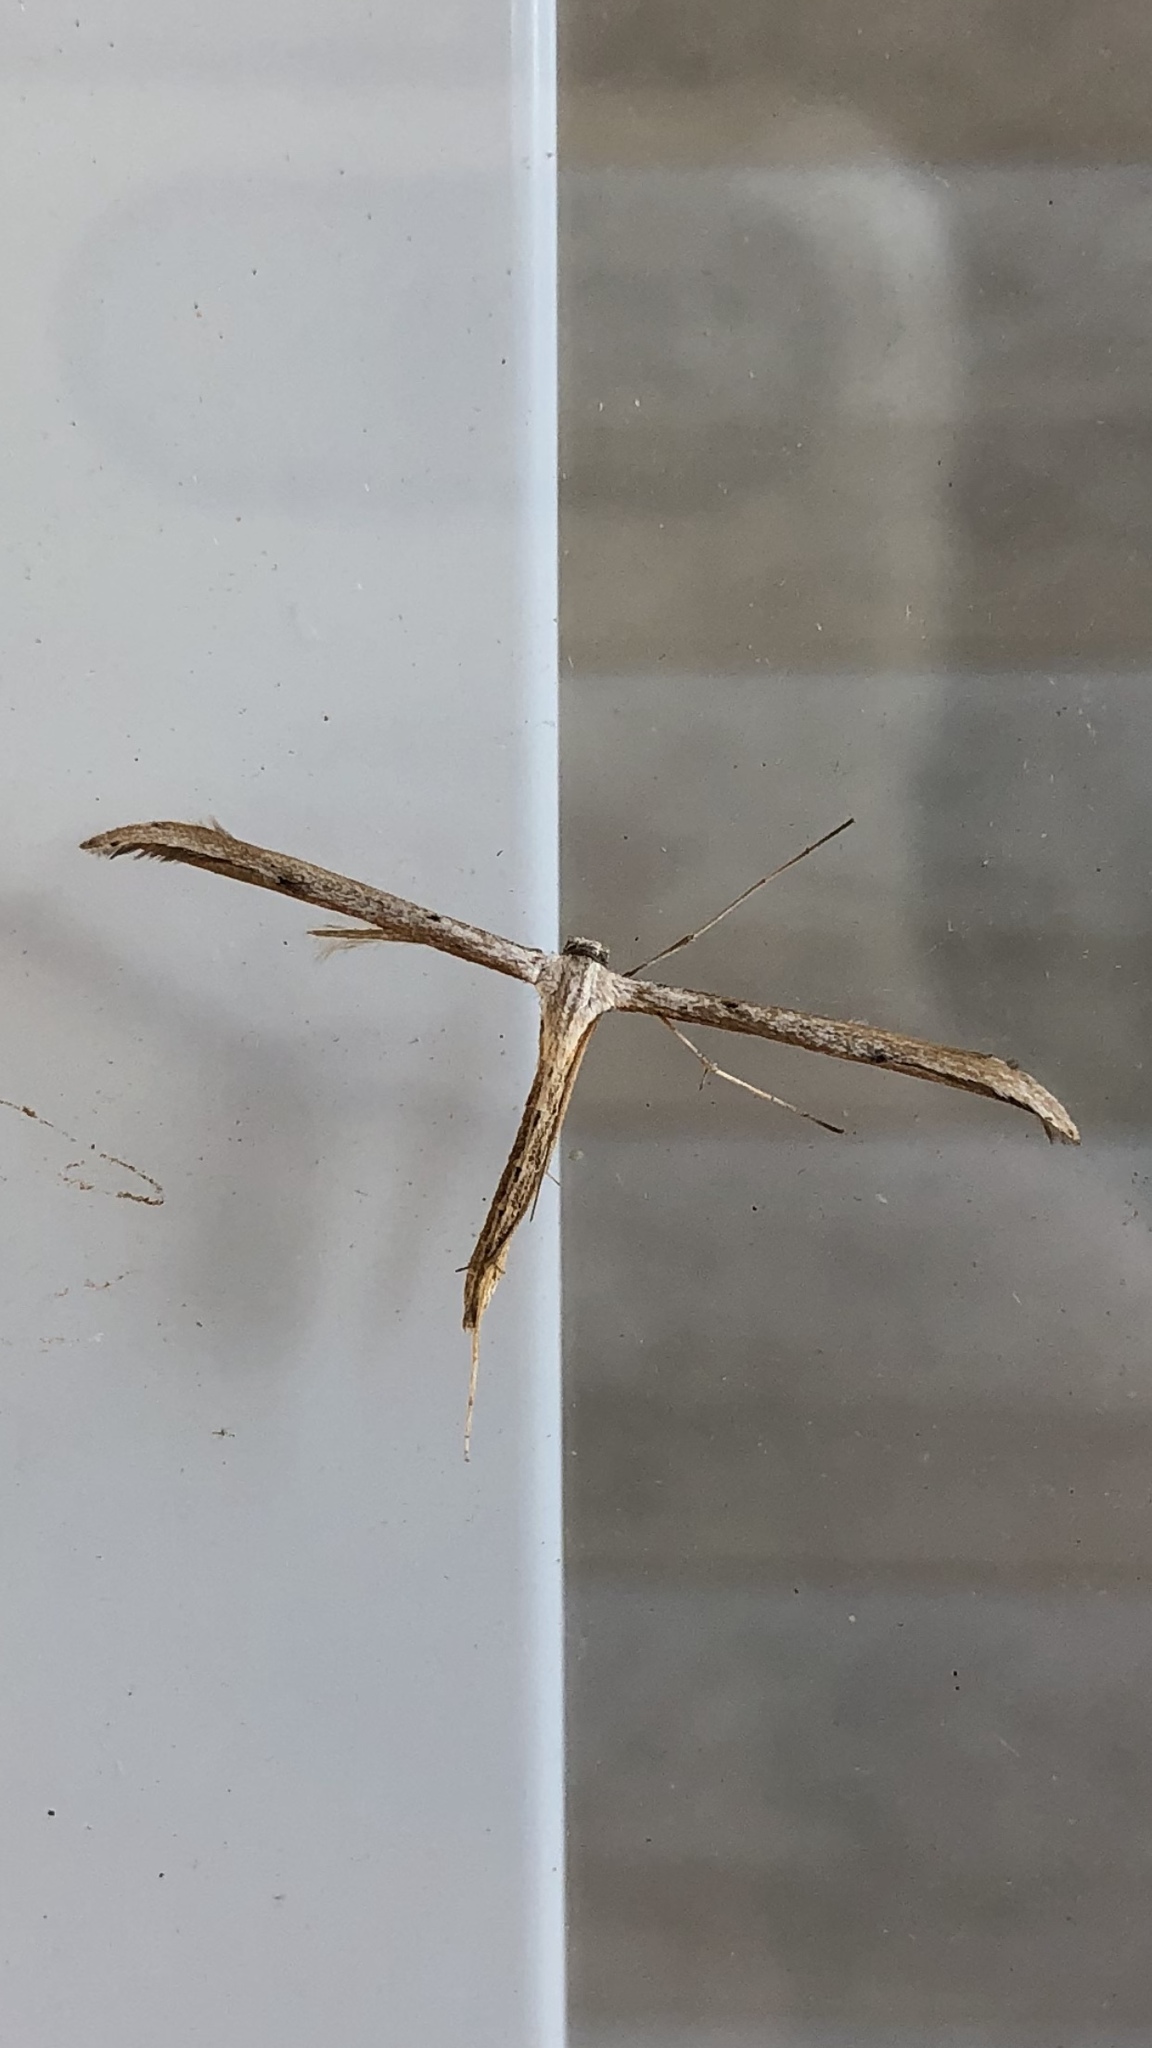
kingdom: Animalia
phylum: Arthropoda
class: Insecta
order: Lepidoptera
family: Pterophoridae
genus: Emmelina
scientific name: Emmelina monodactyla
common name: Common plume
